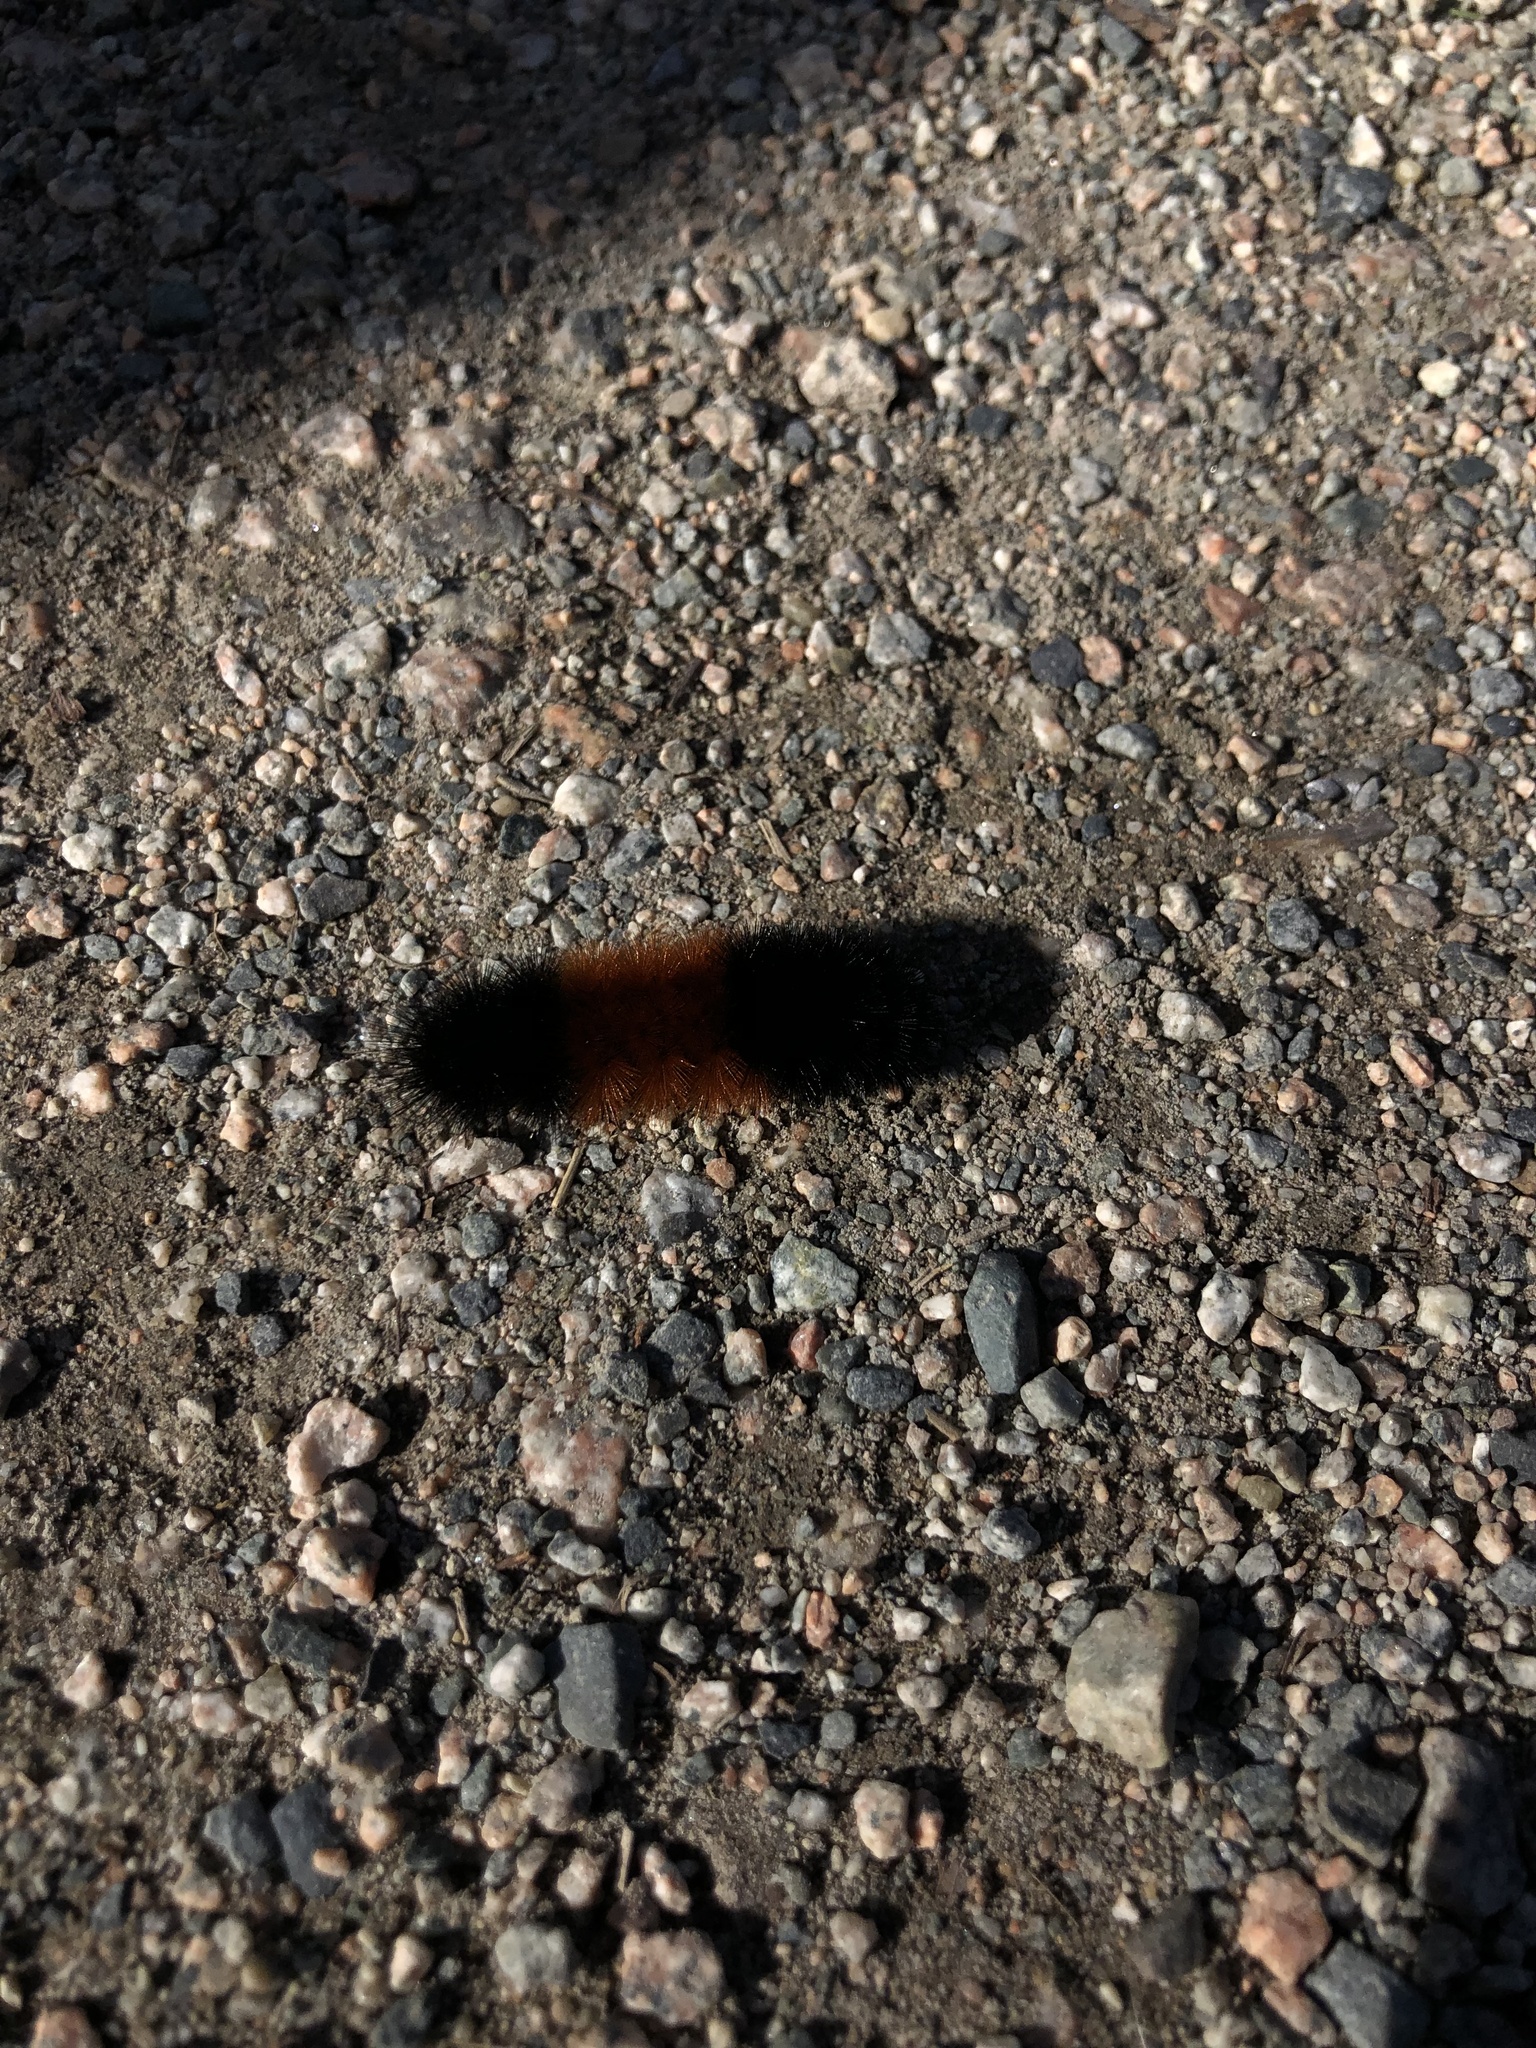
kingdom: Animalia
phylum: Arthropoda
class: Insecta
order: Lepidoptera
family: Erebidae
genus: Pyrrharctia
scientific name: Pyrrharctia isabella
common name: Isabella tiger moth
